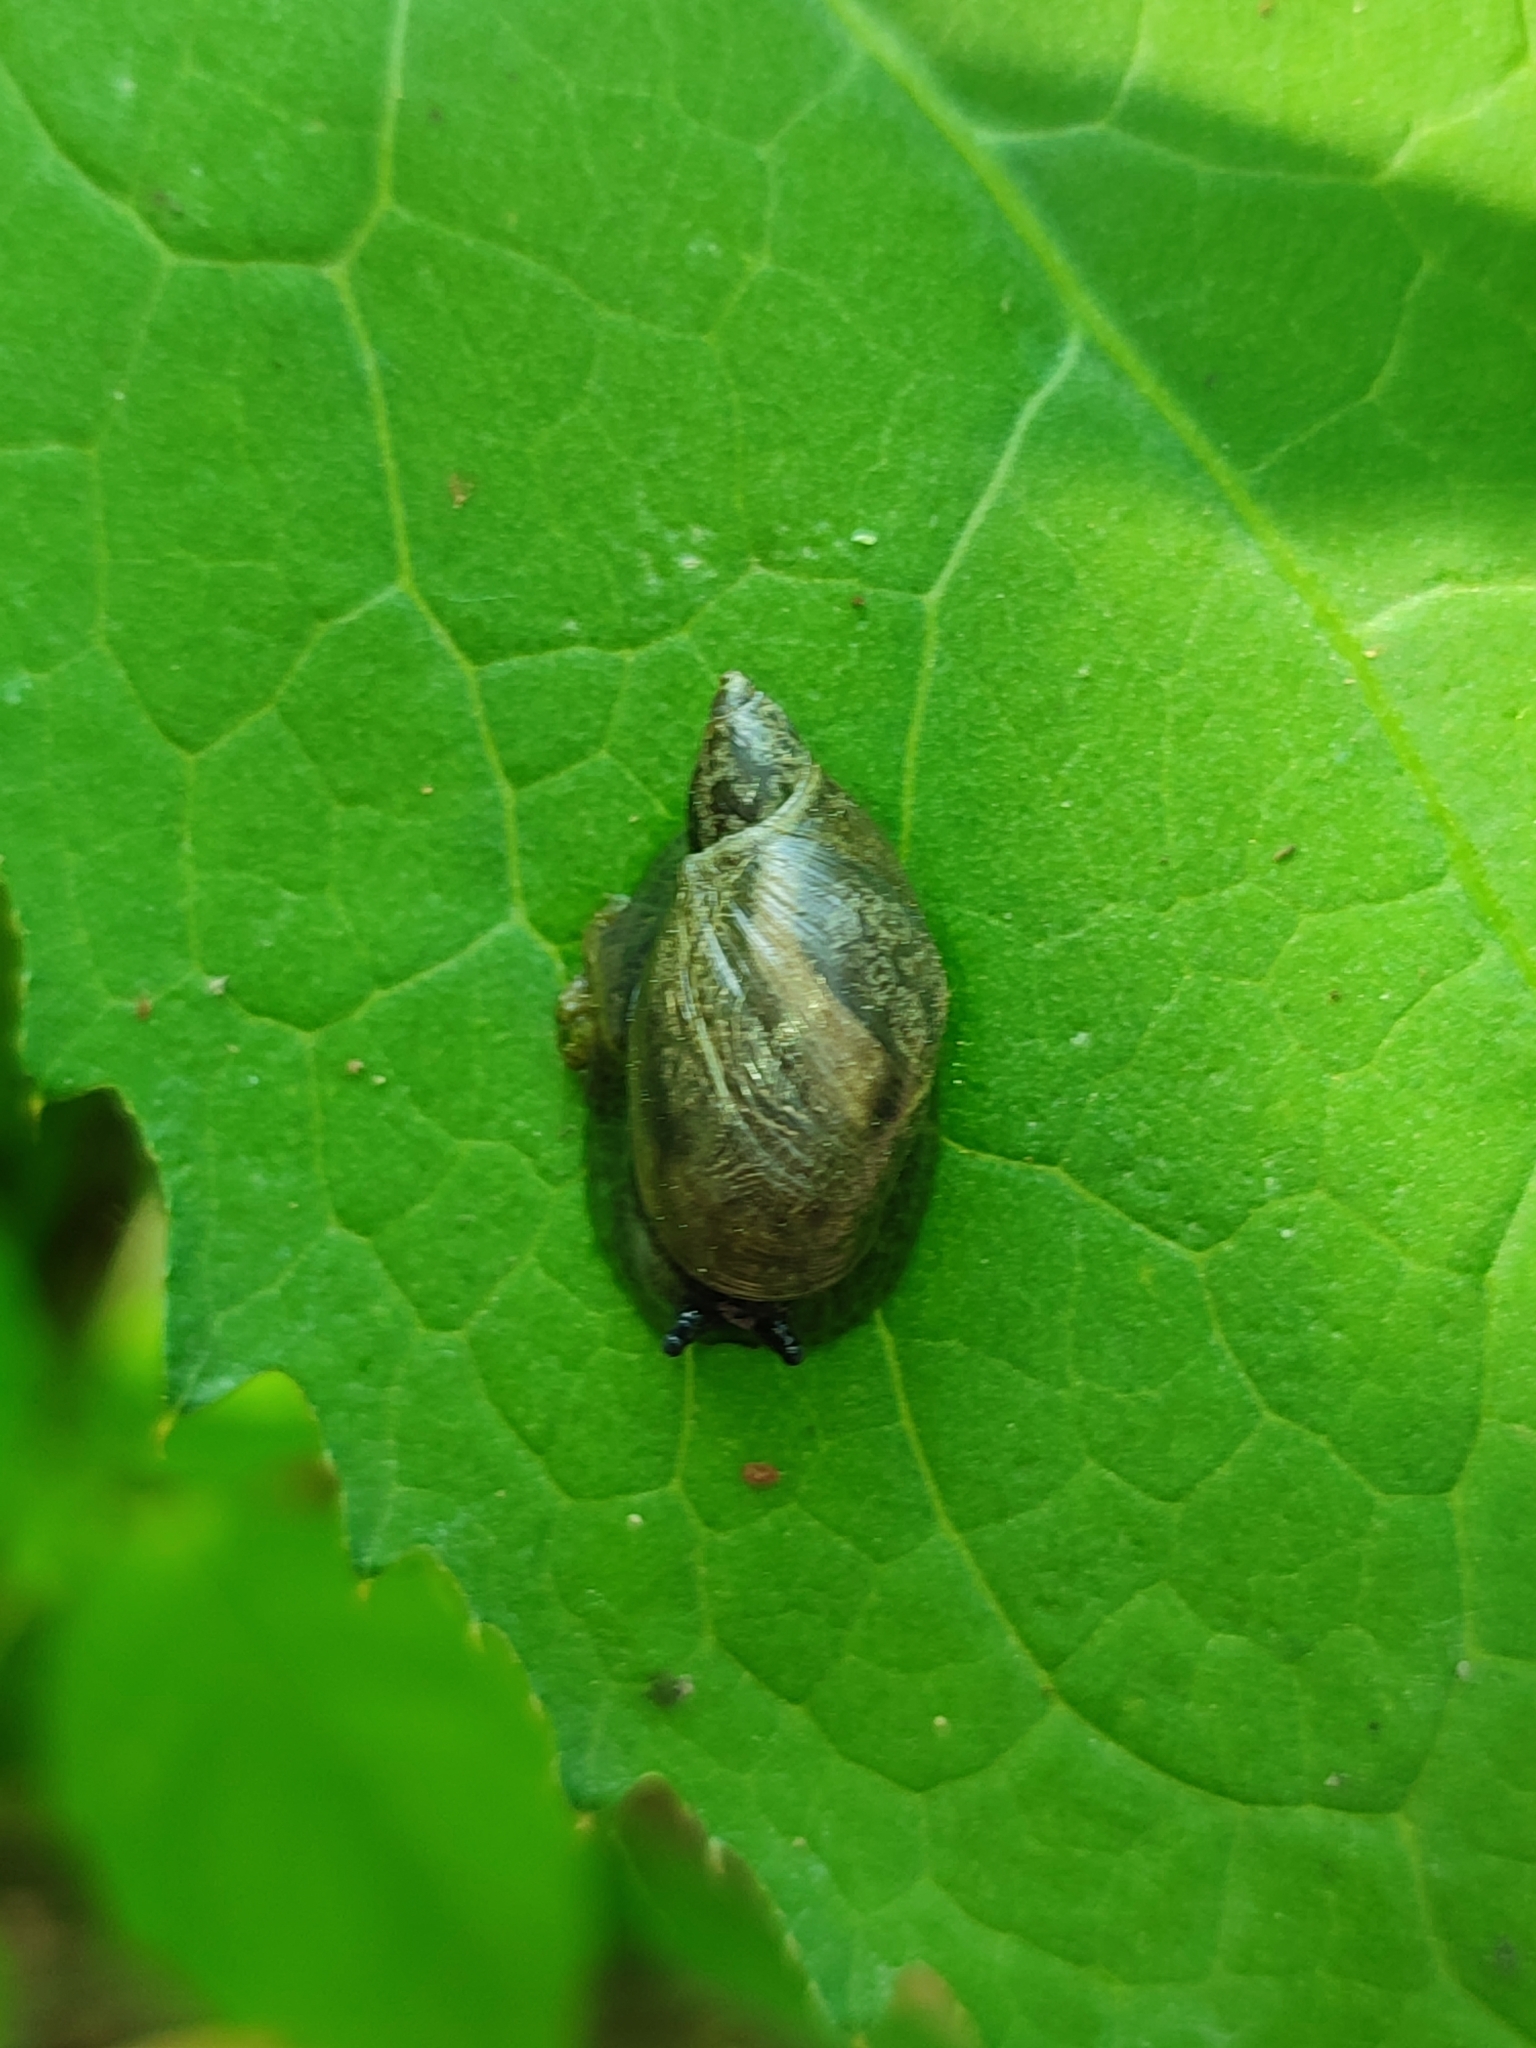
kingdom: Animalia
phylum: Mollusca
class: Gastropoda
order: Stylommatophora
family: Succineidae
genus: Succinea
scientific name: Succinea putris
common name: European ambersnail
